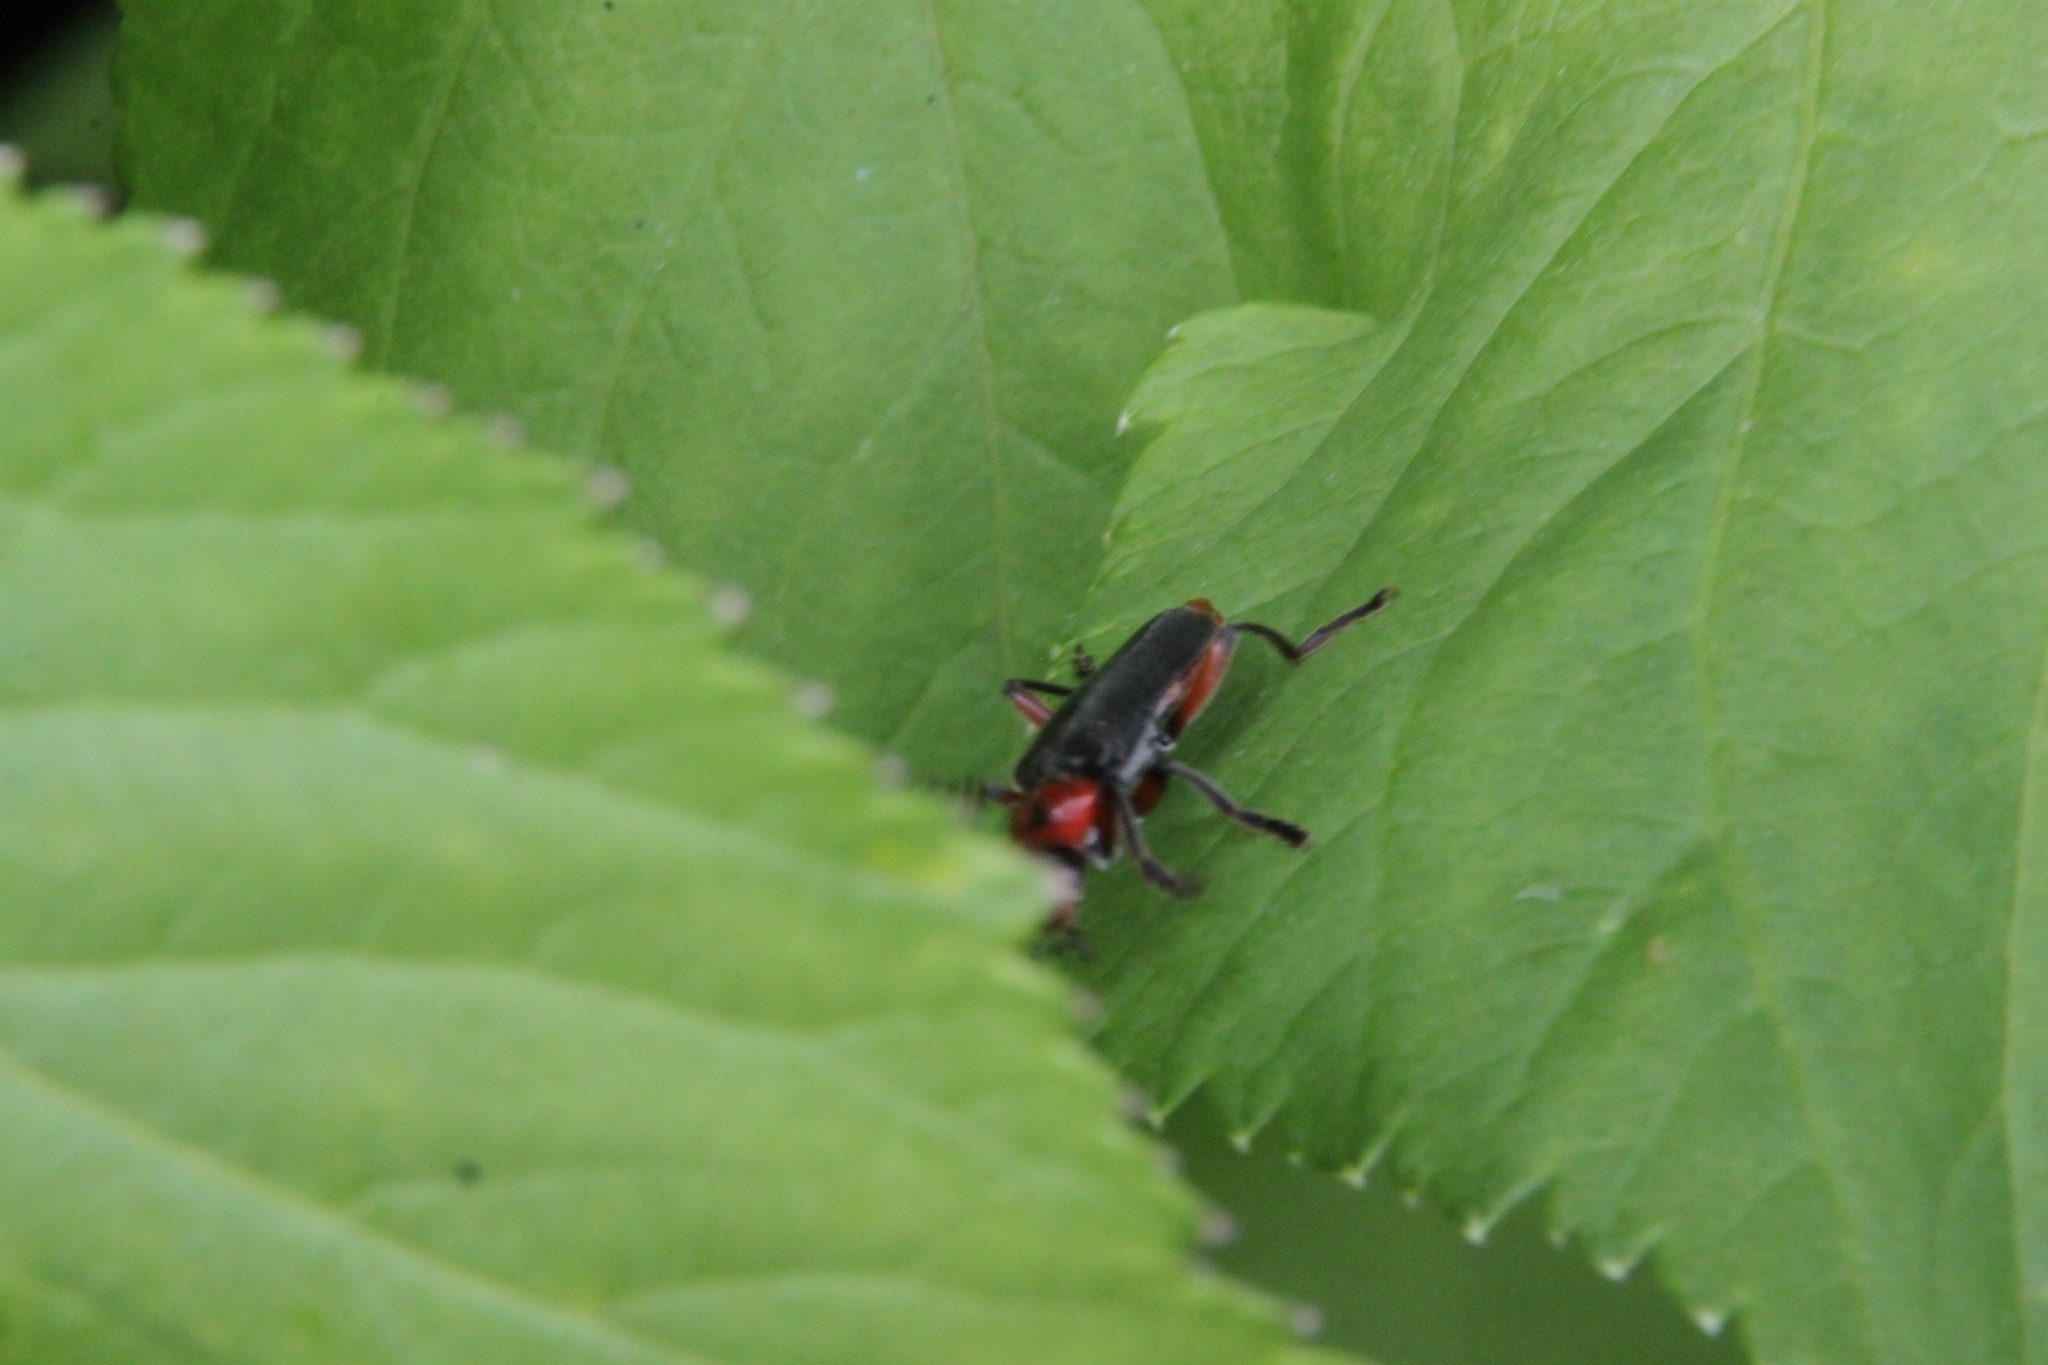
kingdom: Animalia
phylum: Arthropoda
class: Insecta
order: Coleoptera
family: Cantharidae
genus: Cantharis
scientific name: Cantharis rustica
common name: Soldier beetle
